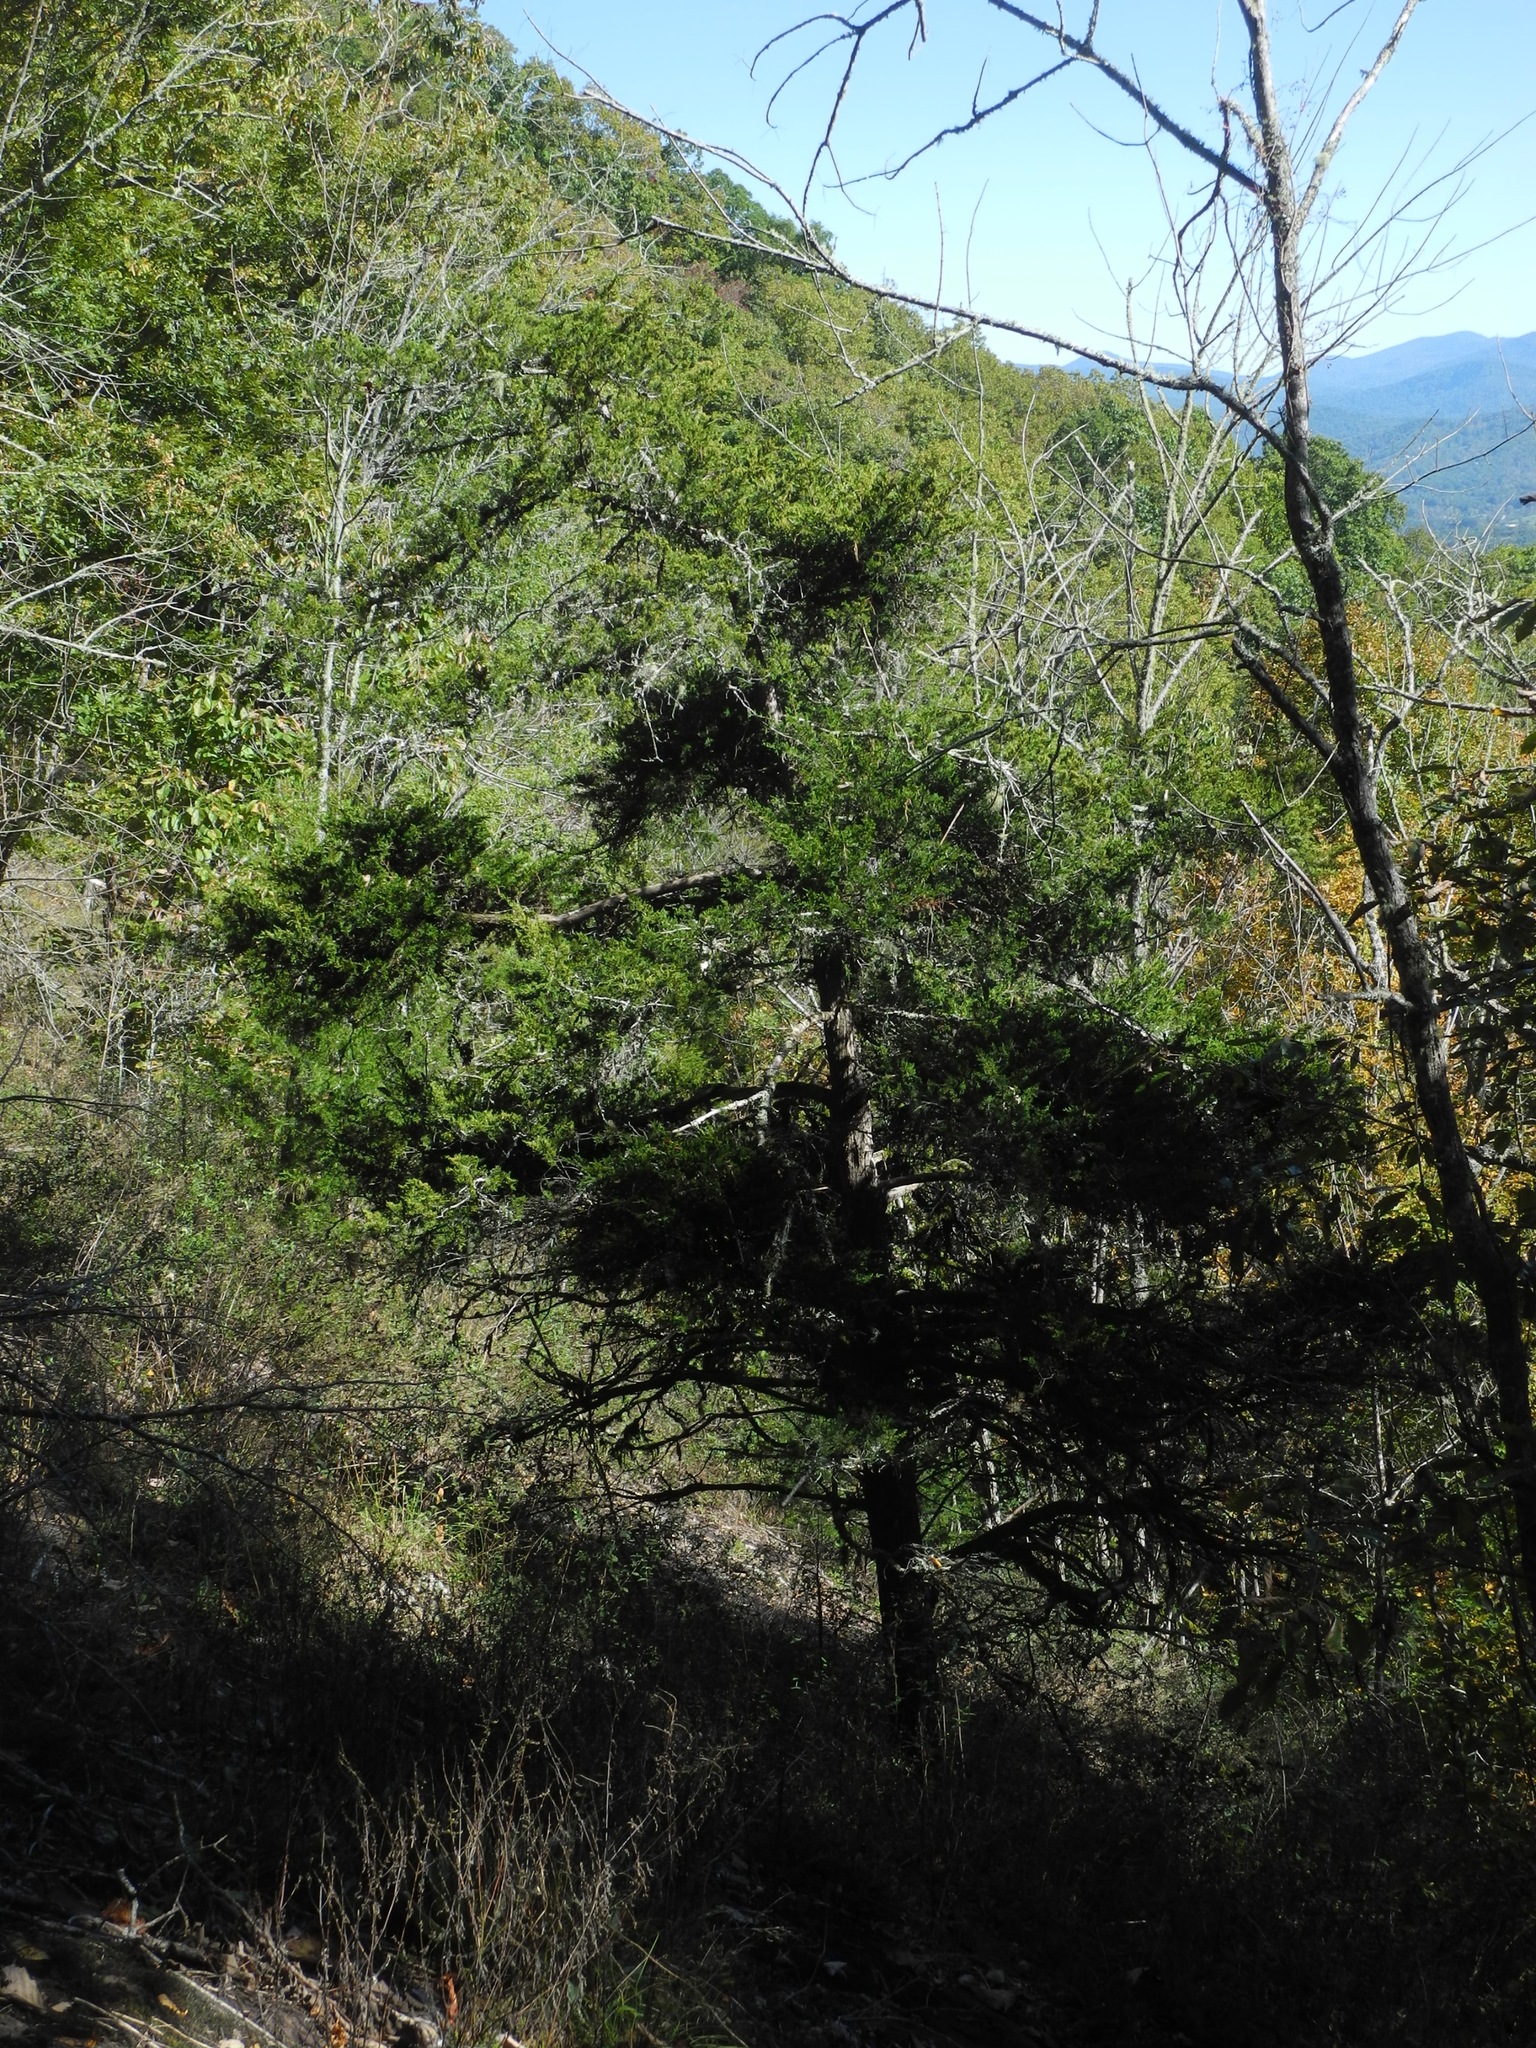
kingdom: Plantae
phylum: Tracheophyta
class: Pinopsida
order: Pinales
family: Cupressaceae
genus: Juniperus
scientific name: Juniperus virginiana
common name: Red juniper
